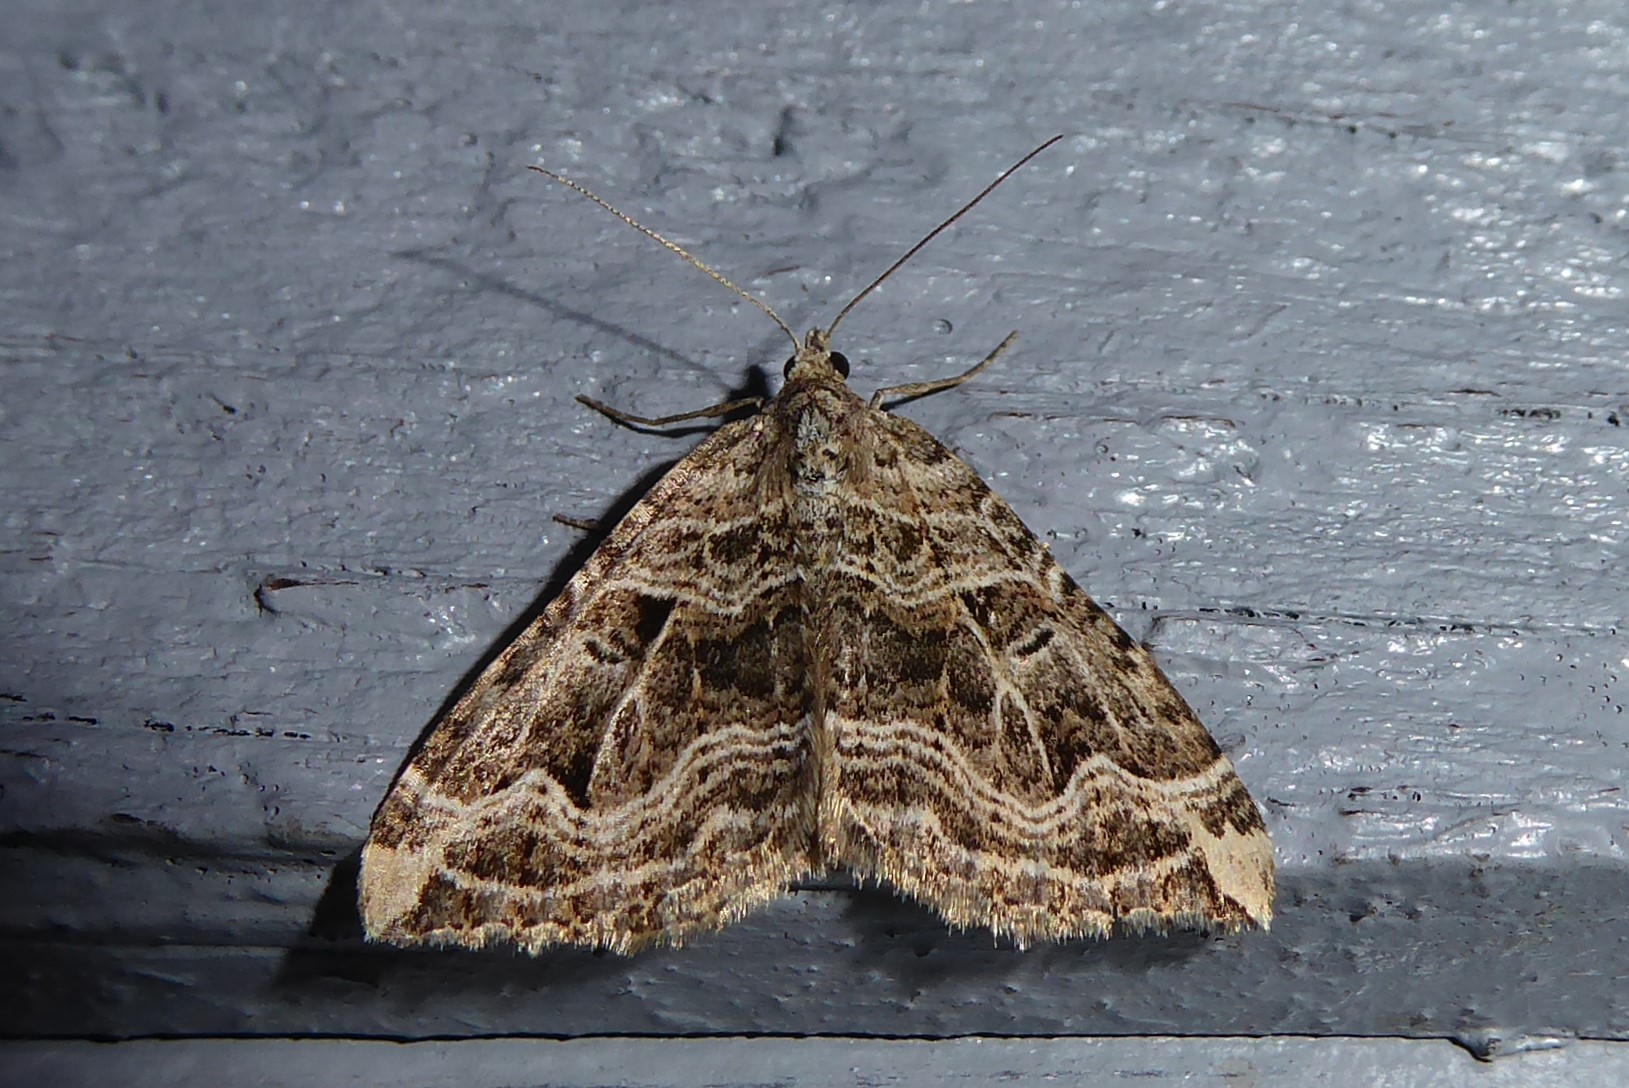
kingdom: Animalia
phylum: Arthropoda
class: Insecta
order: Lepidoptera
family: Geometridae
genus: Xanthorhoe
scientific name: Xanthorhoe semifissata
